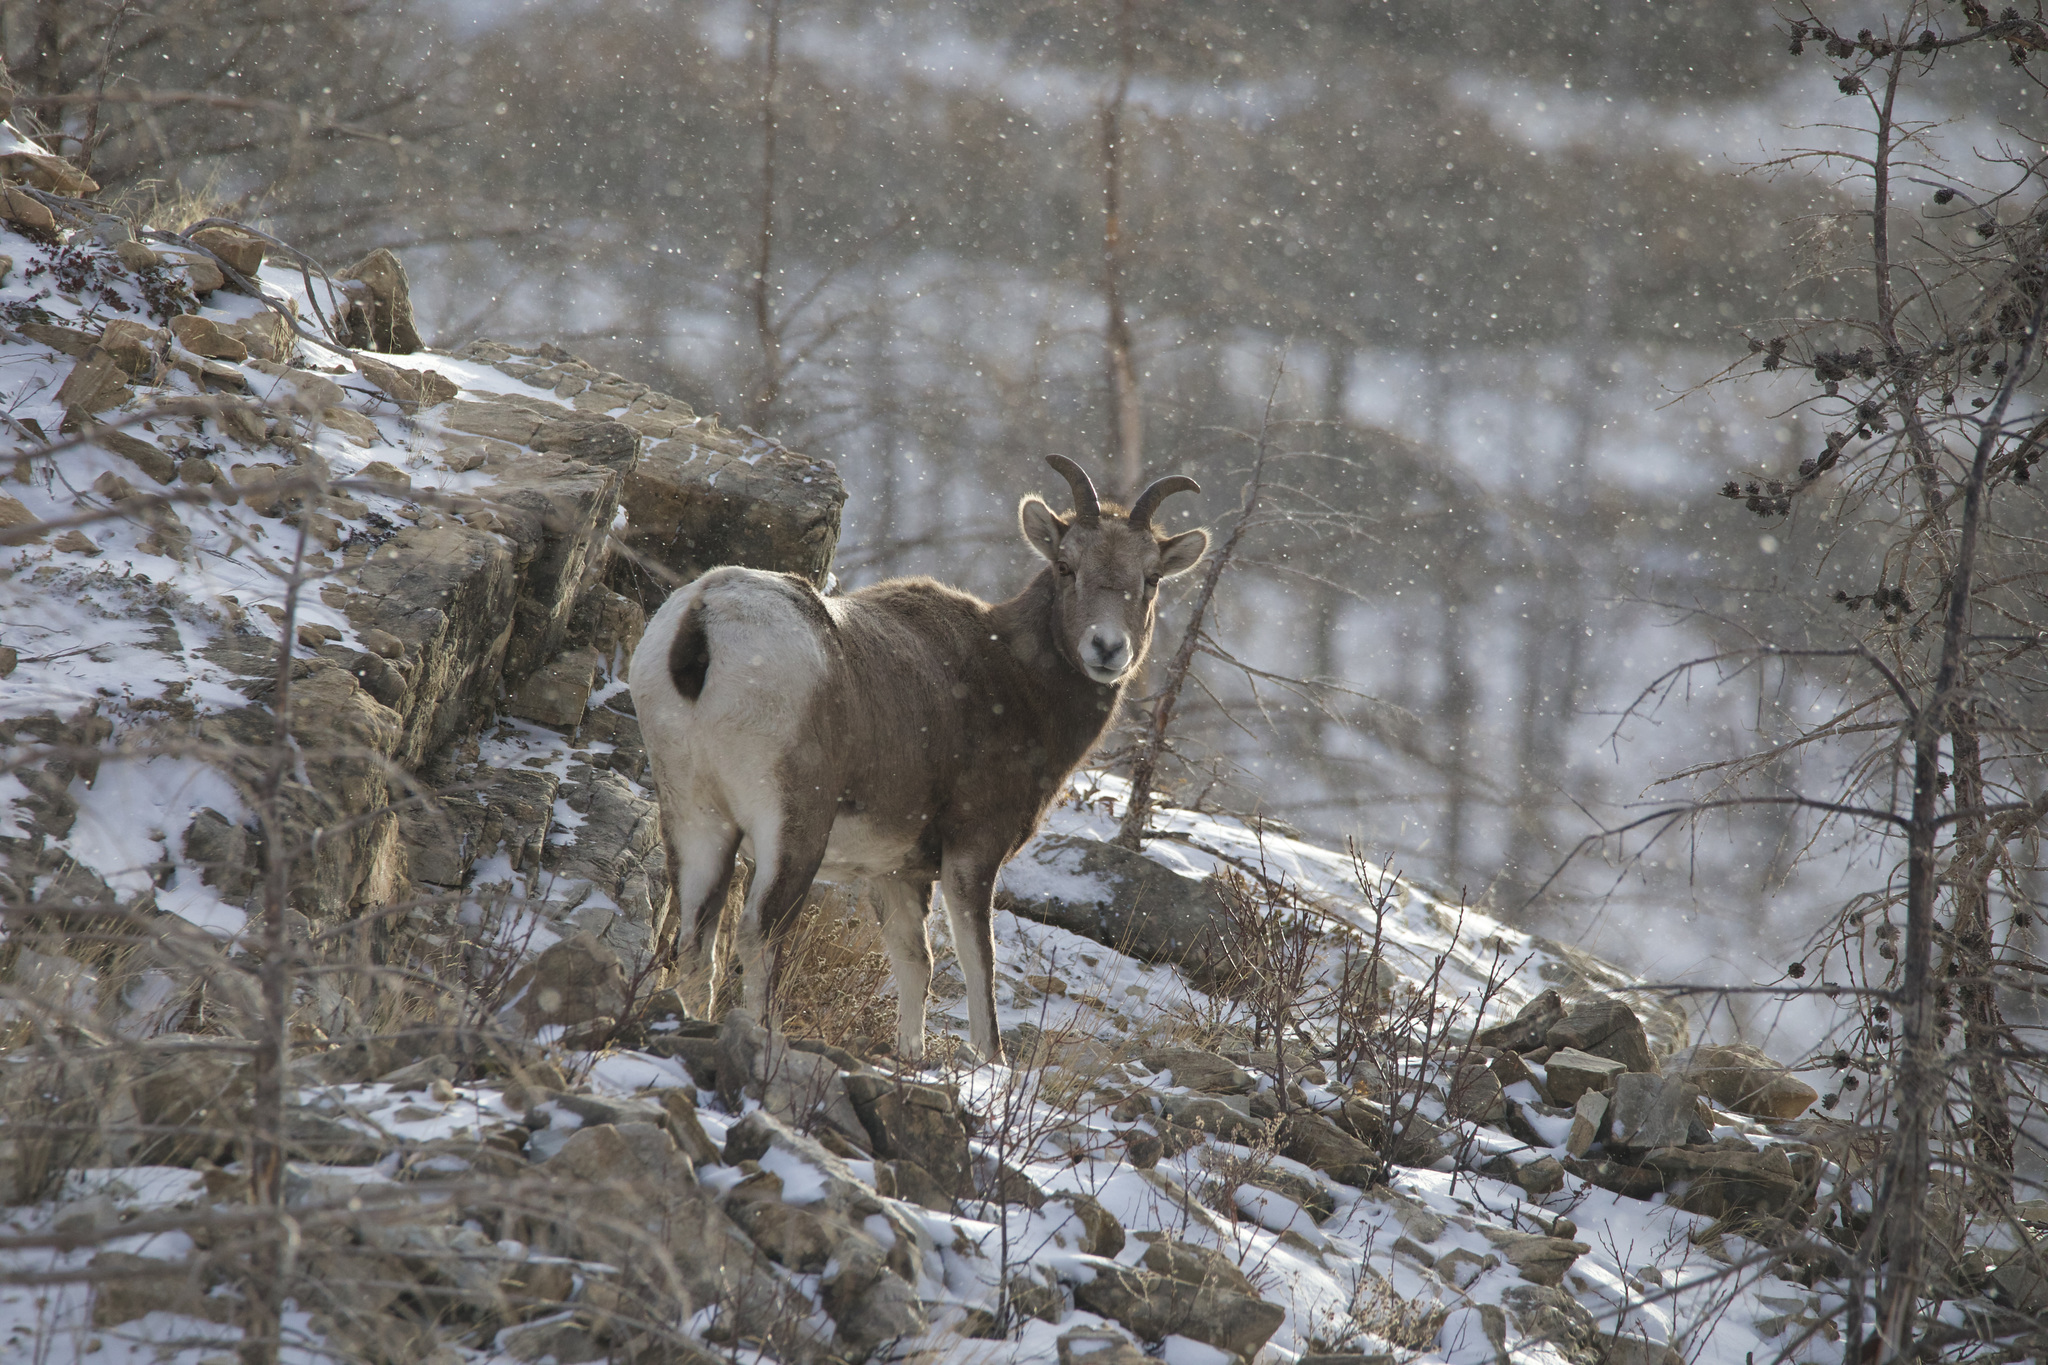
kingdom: Animalia
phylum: Chordata
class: Mammalia
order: Artiodactyla
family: Bovidae
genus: Ovis
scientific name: Ovis canadensis
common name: Bighorn sheep
